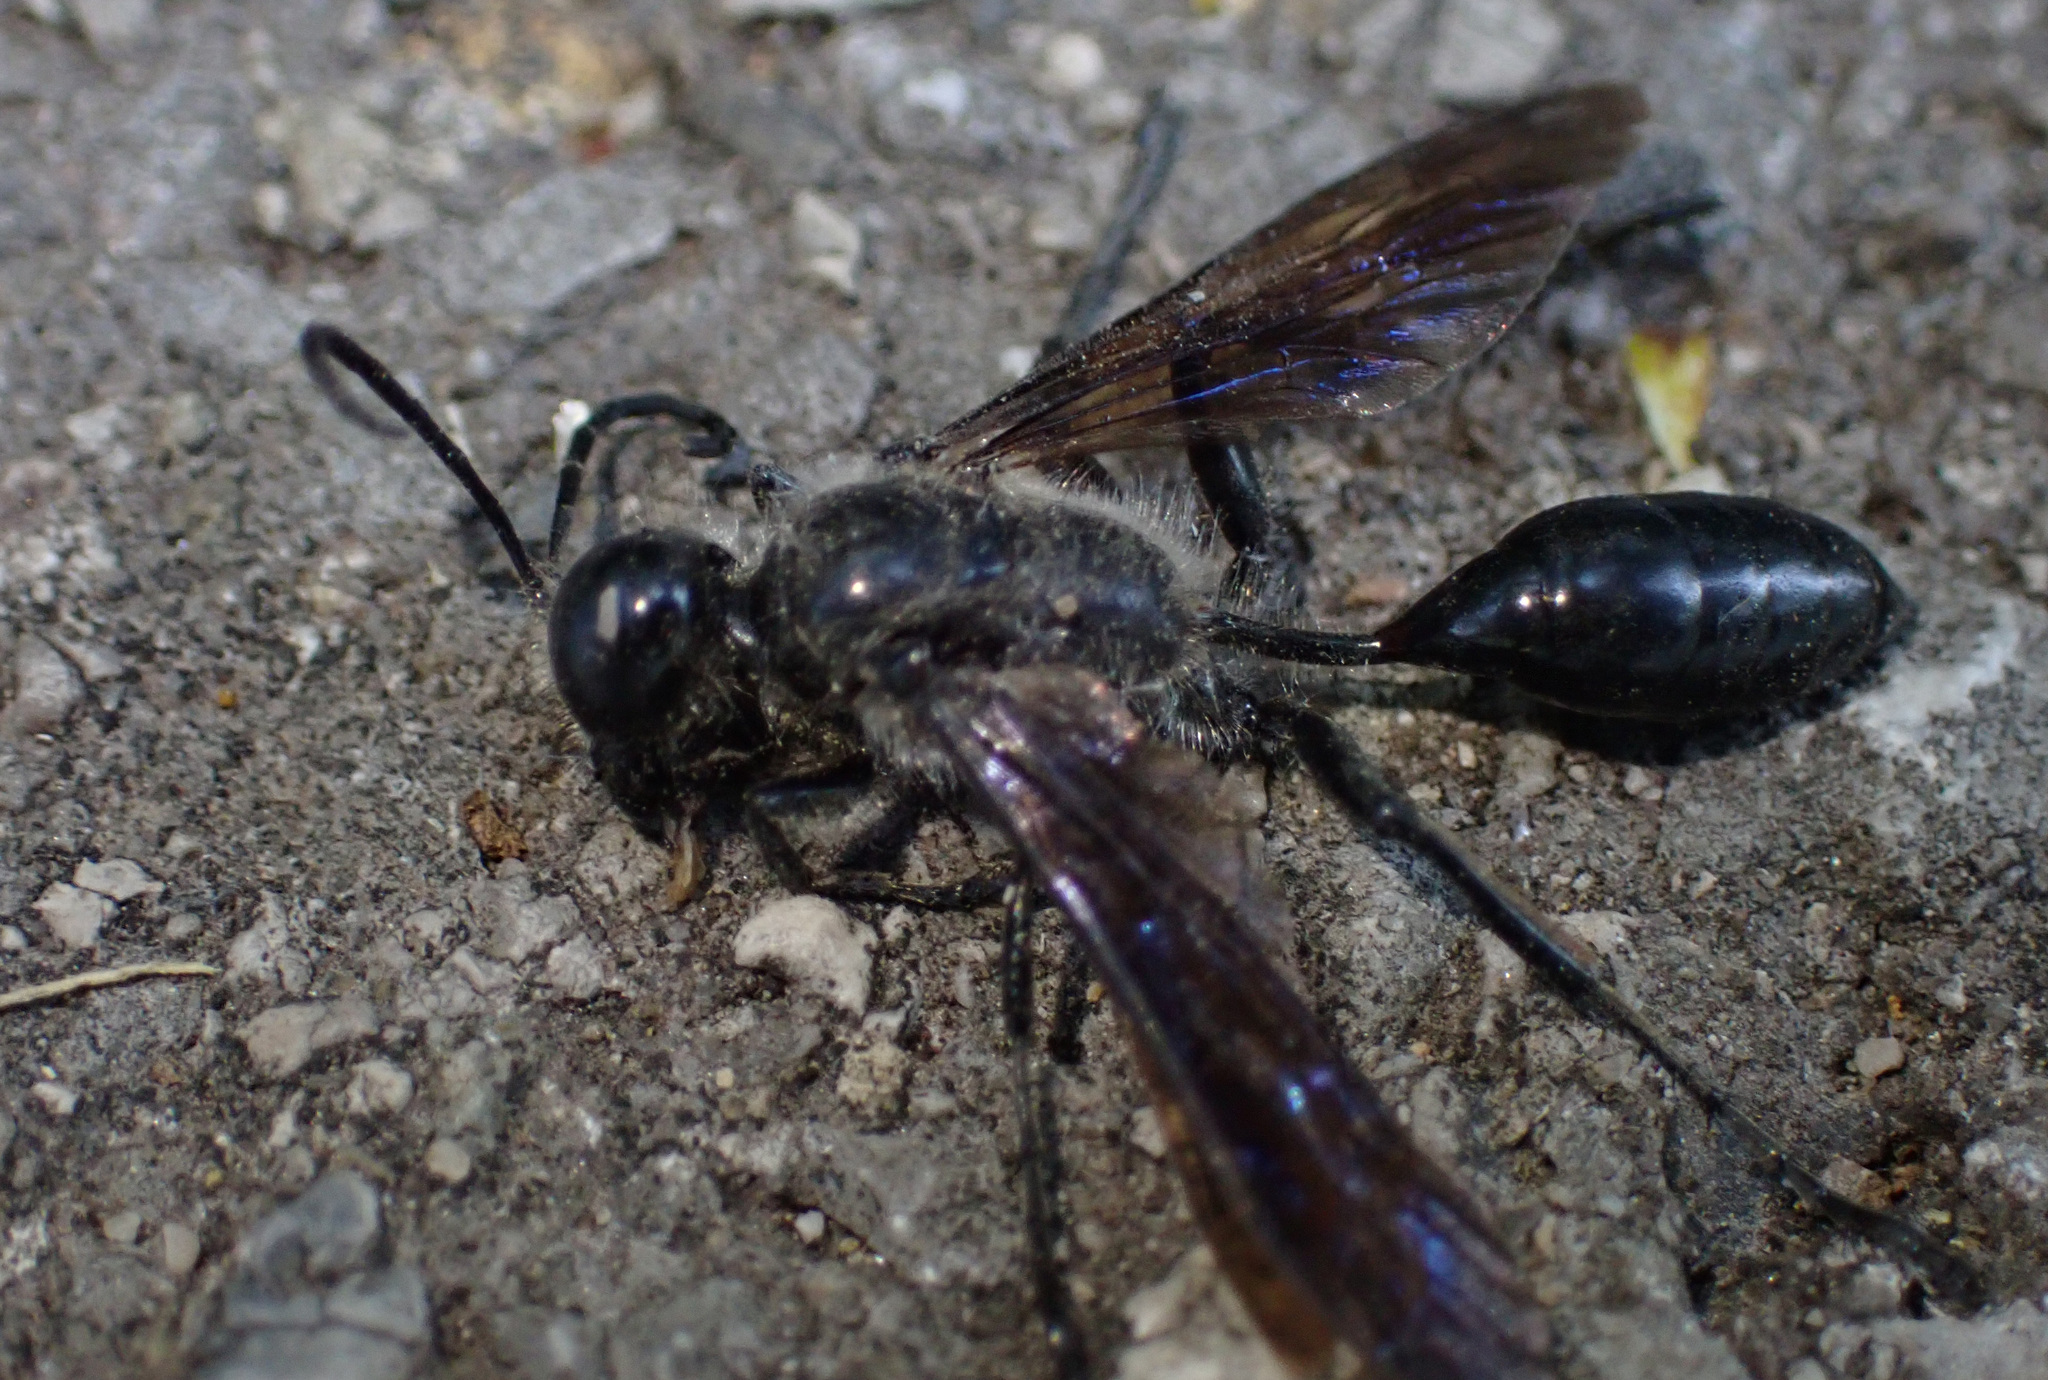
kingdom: Animalia
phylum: Arthropoda
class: Insecta
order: Hymenoptera
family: Sphecidae
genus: Isodontia
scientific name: Isodontia mexicana
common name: Mud dauber
